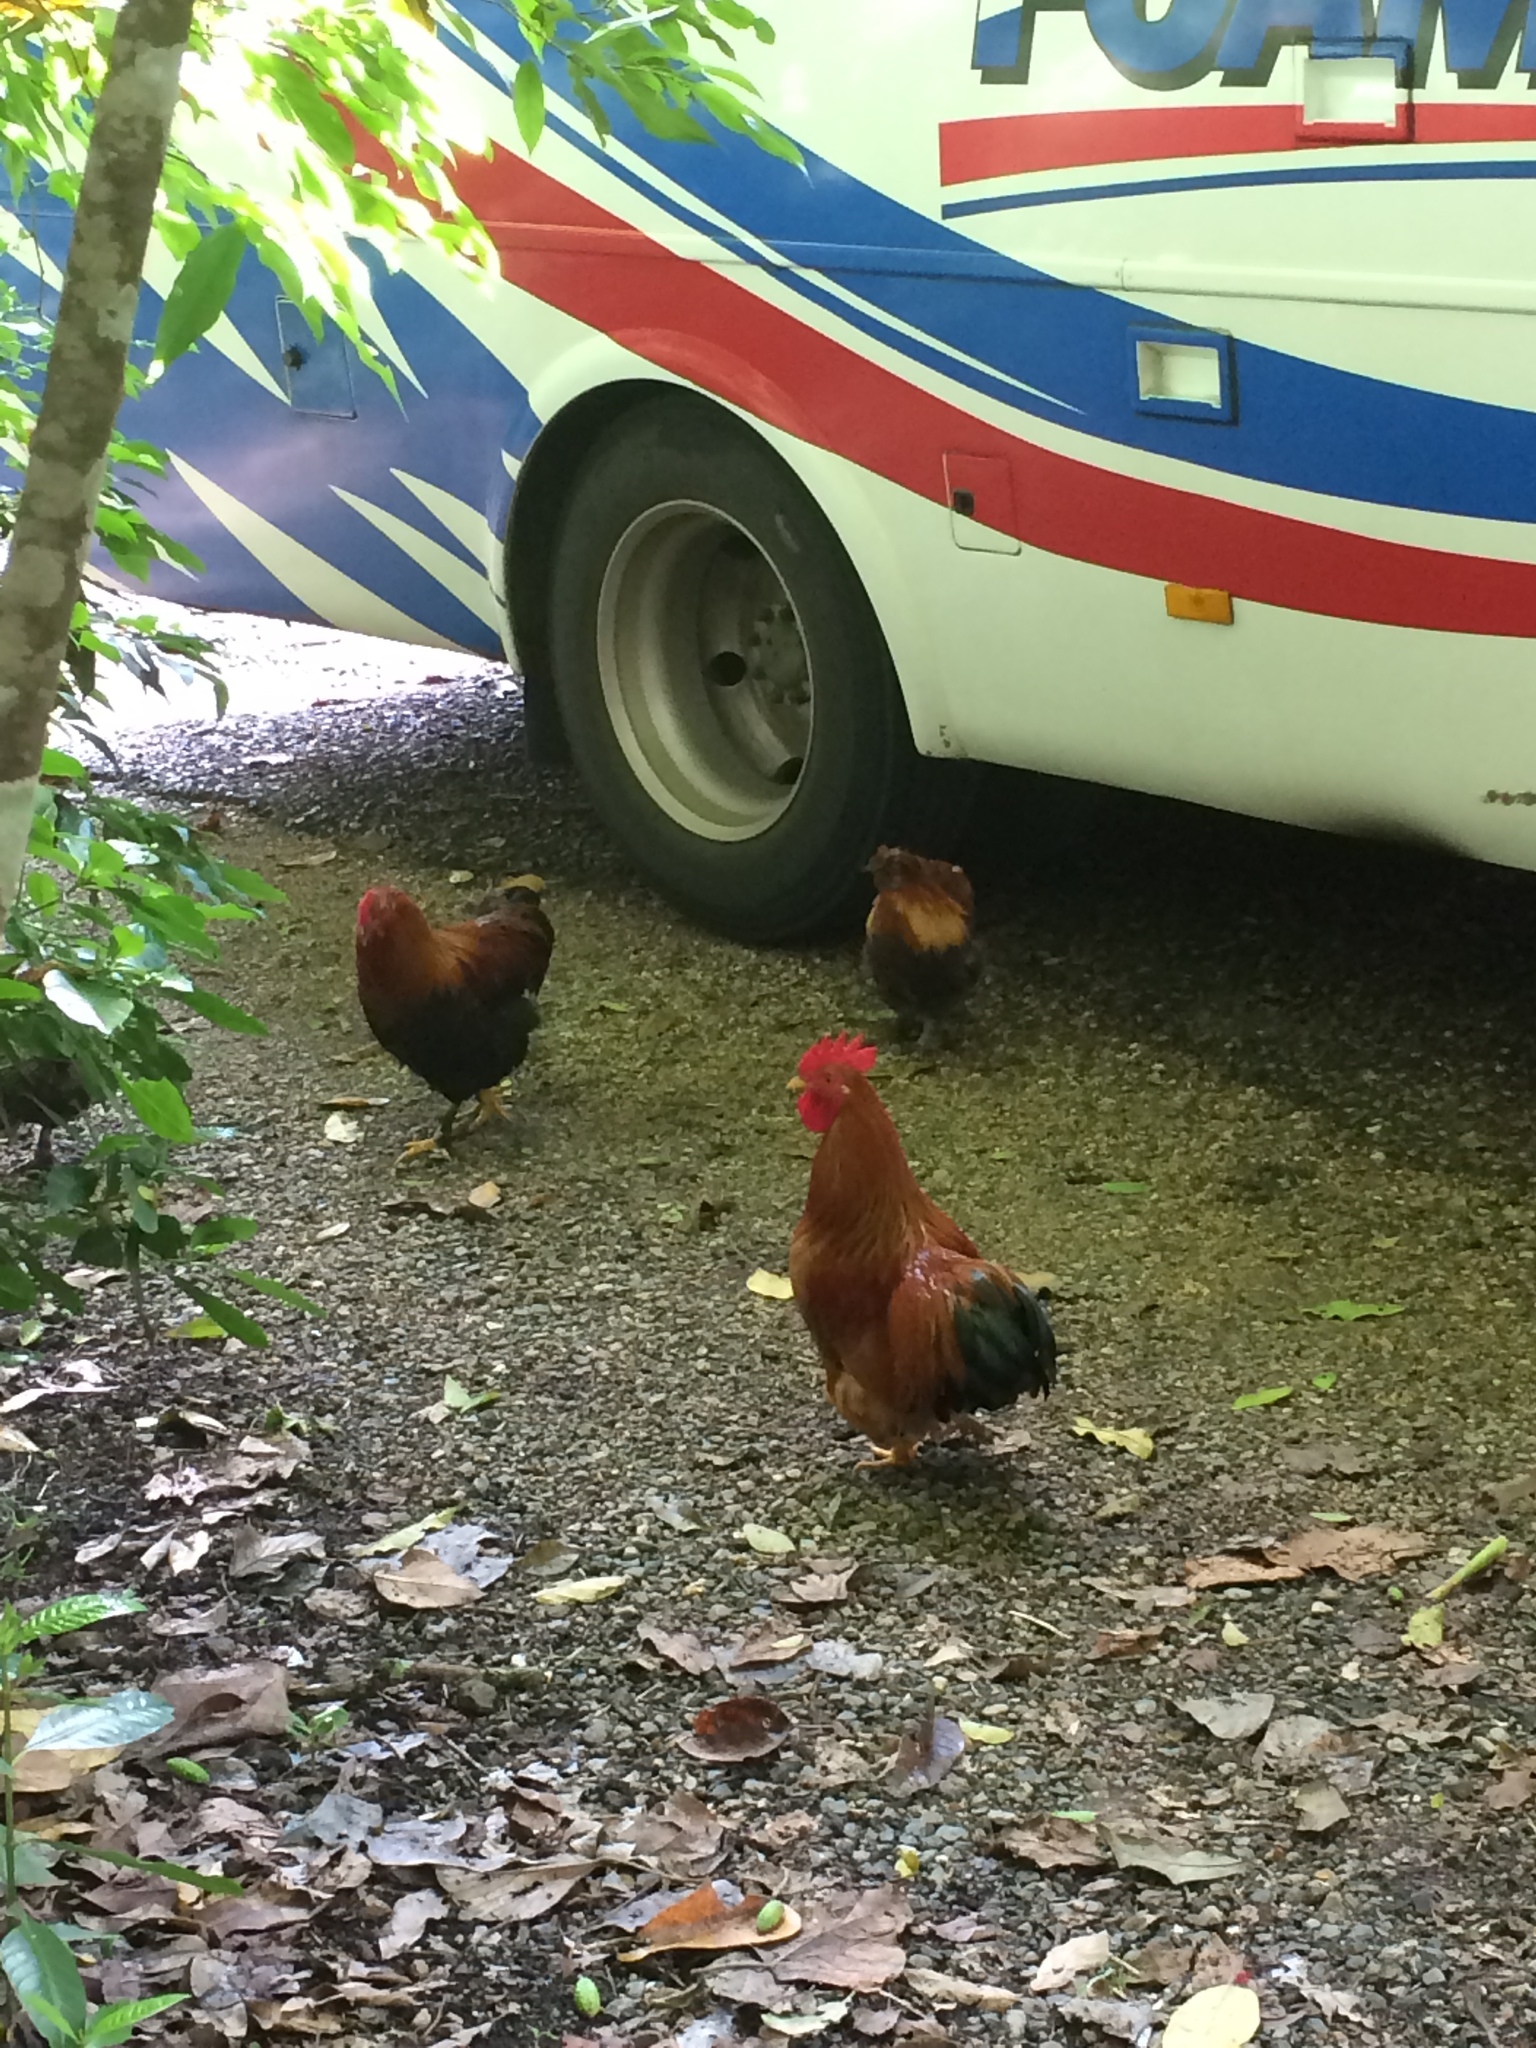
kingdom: Animalia
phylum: Chordata
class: Aves
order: Galliformes
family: Phasianidae
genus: Gallus
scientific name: Gallus gallus
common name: Red junglefowl
